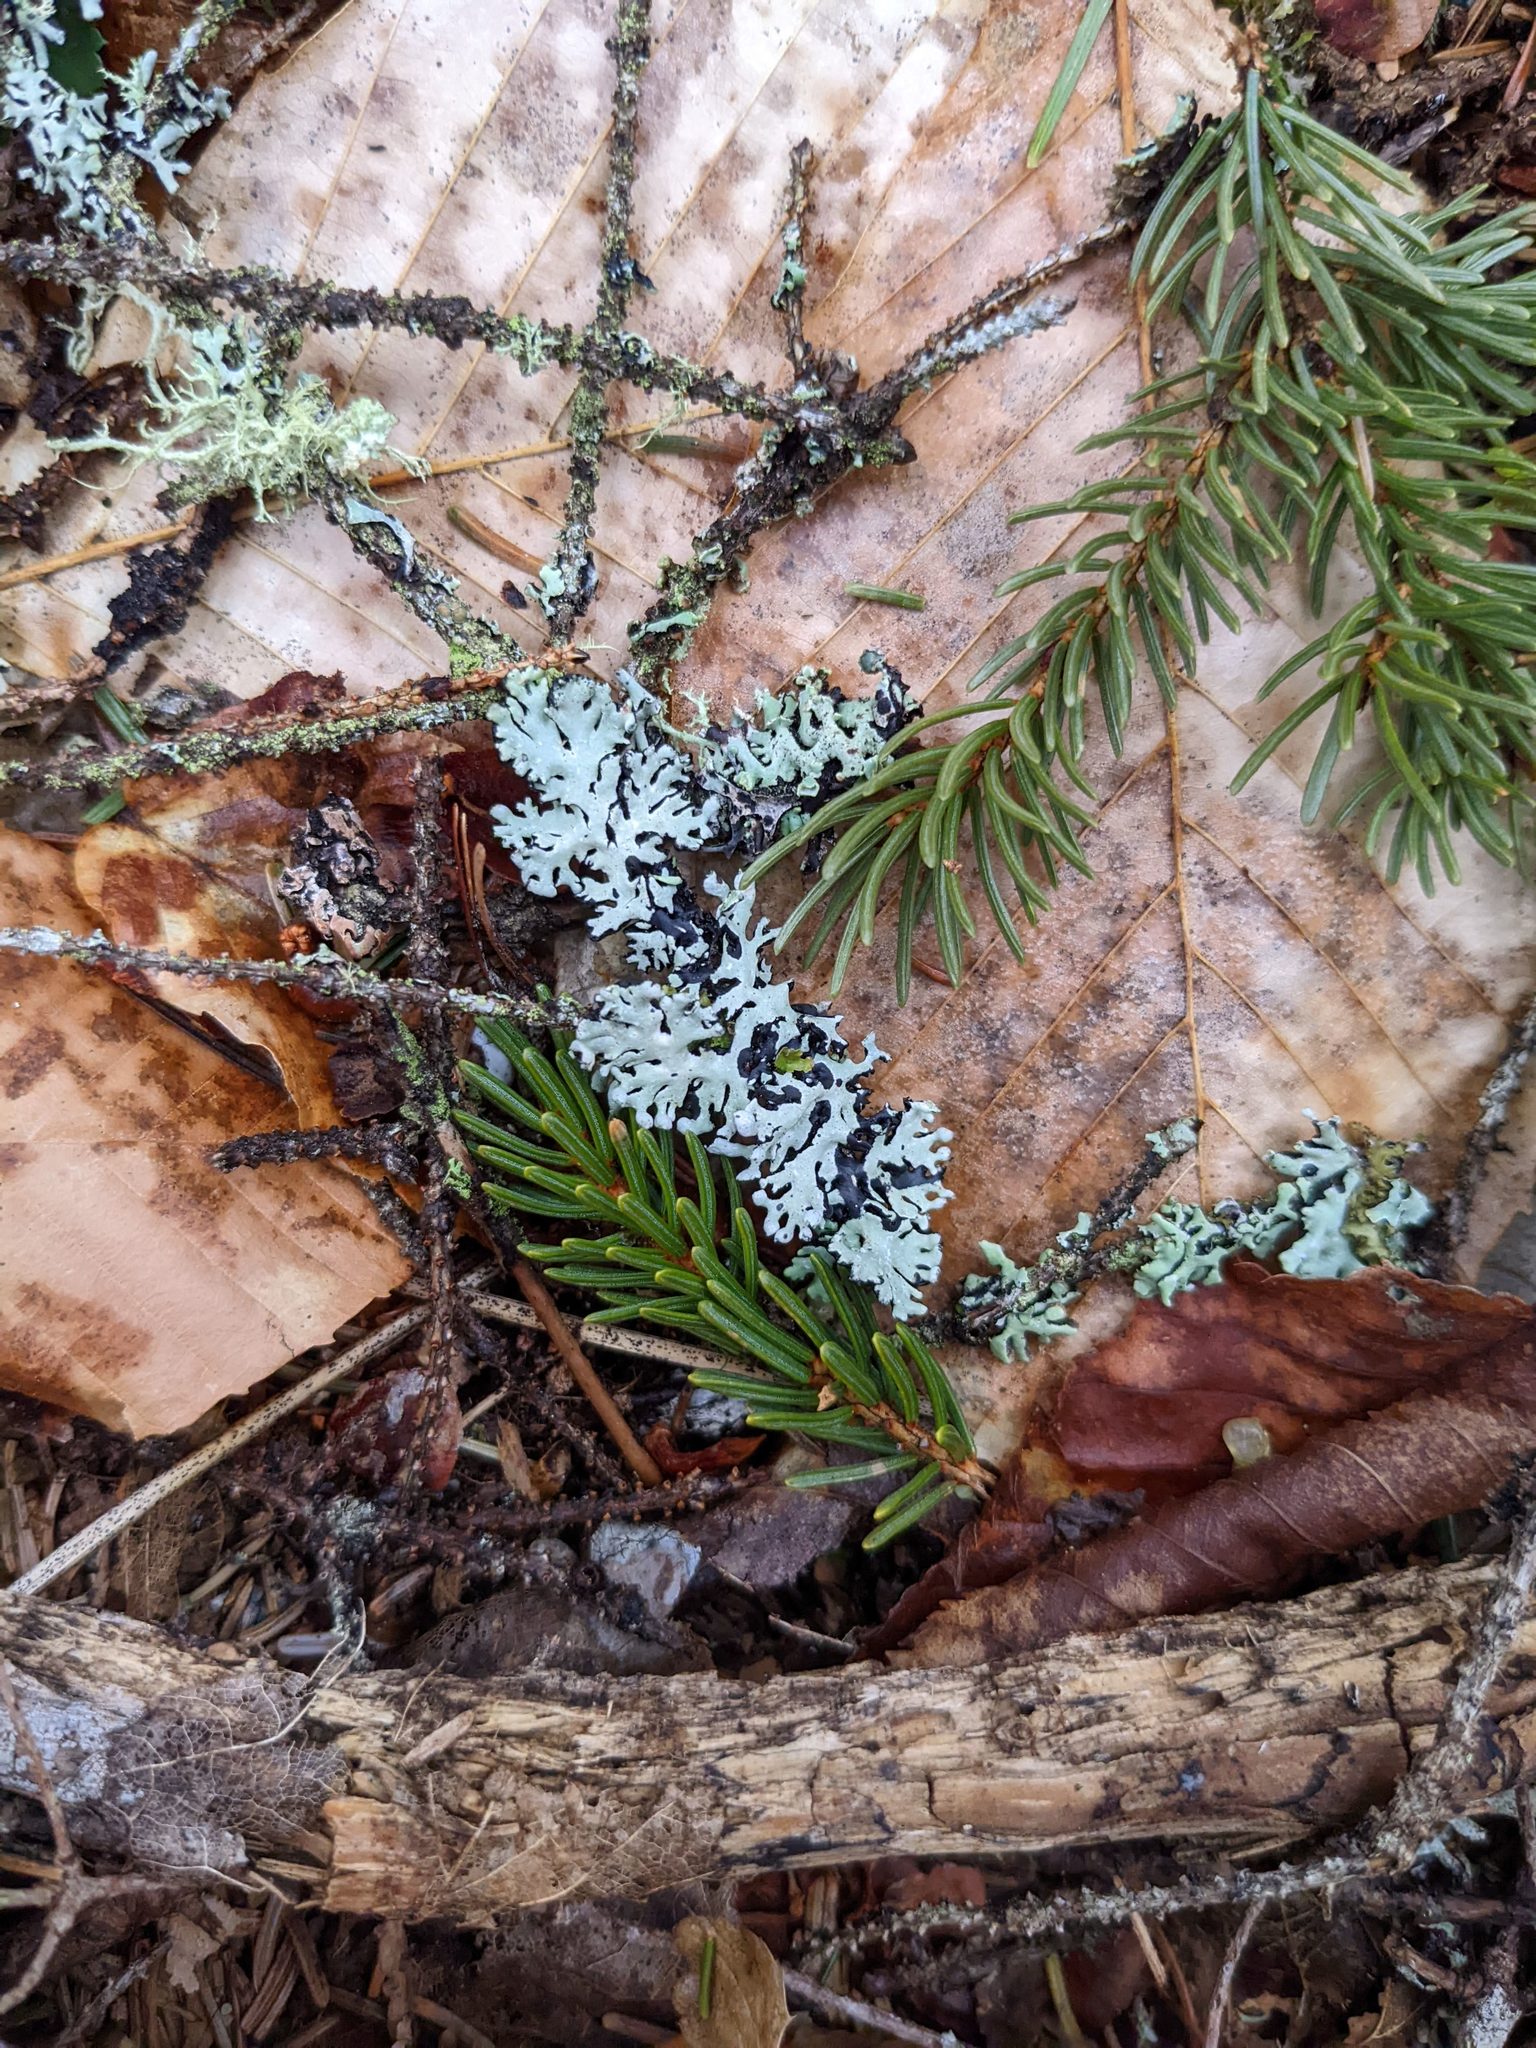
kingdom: Fungi
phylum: Ascomycota
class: Lecanoromycetes
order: Lecanorales
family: Parmeliaceae
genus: Hypogymnia
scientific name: Hypogymnia physodes
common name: Dark crottle
